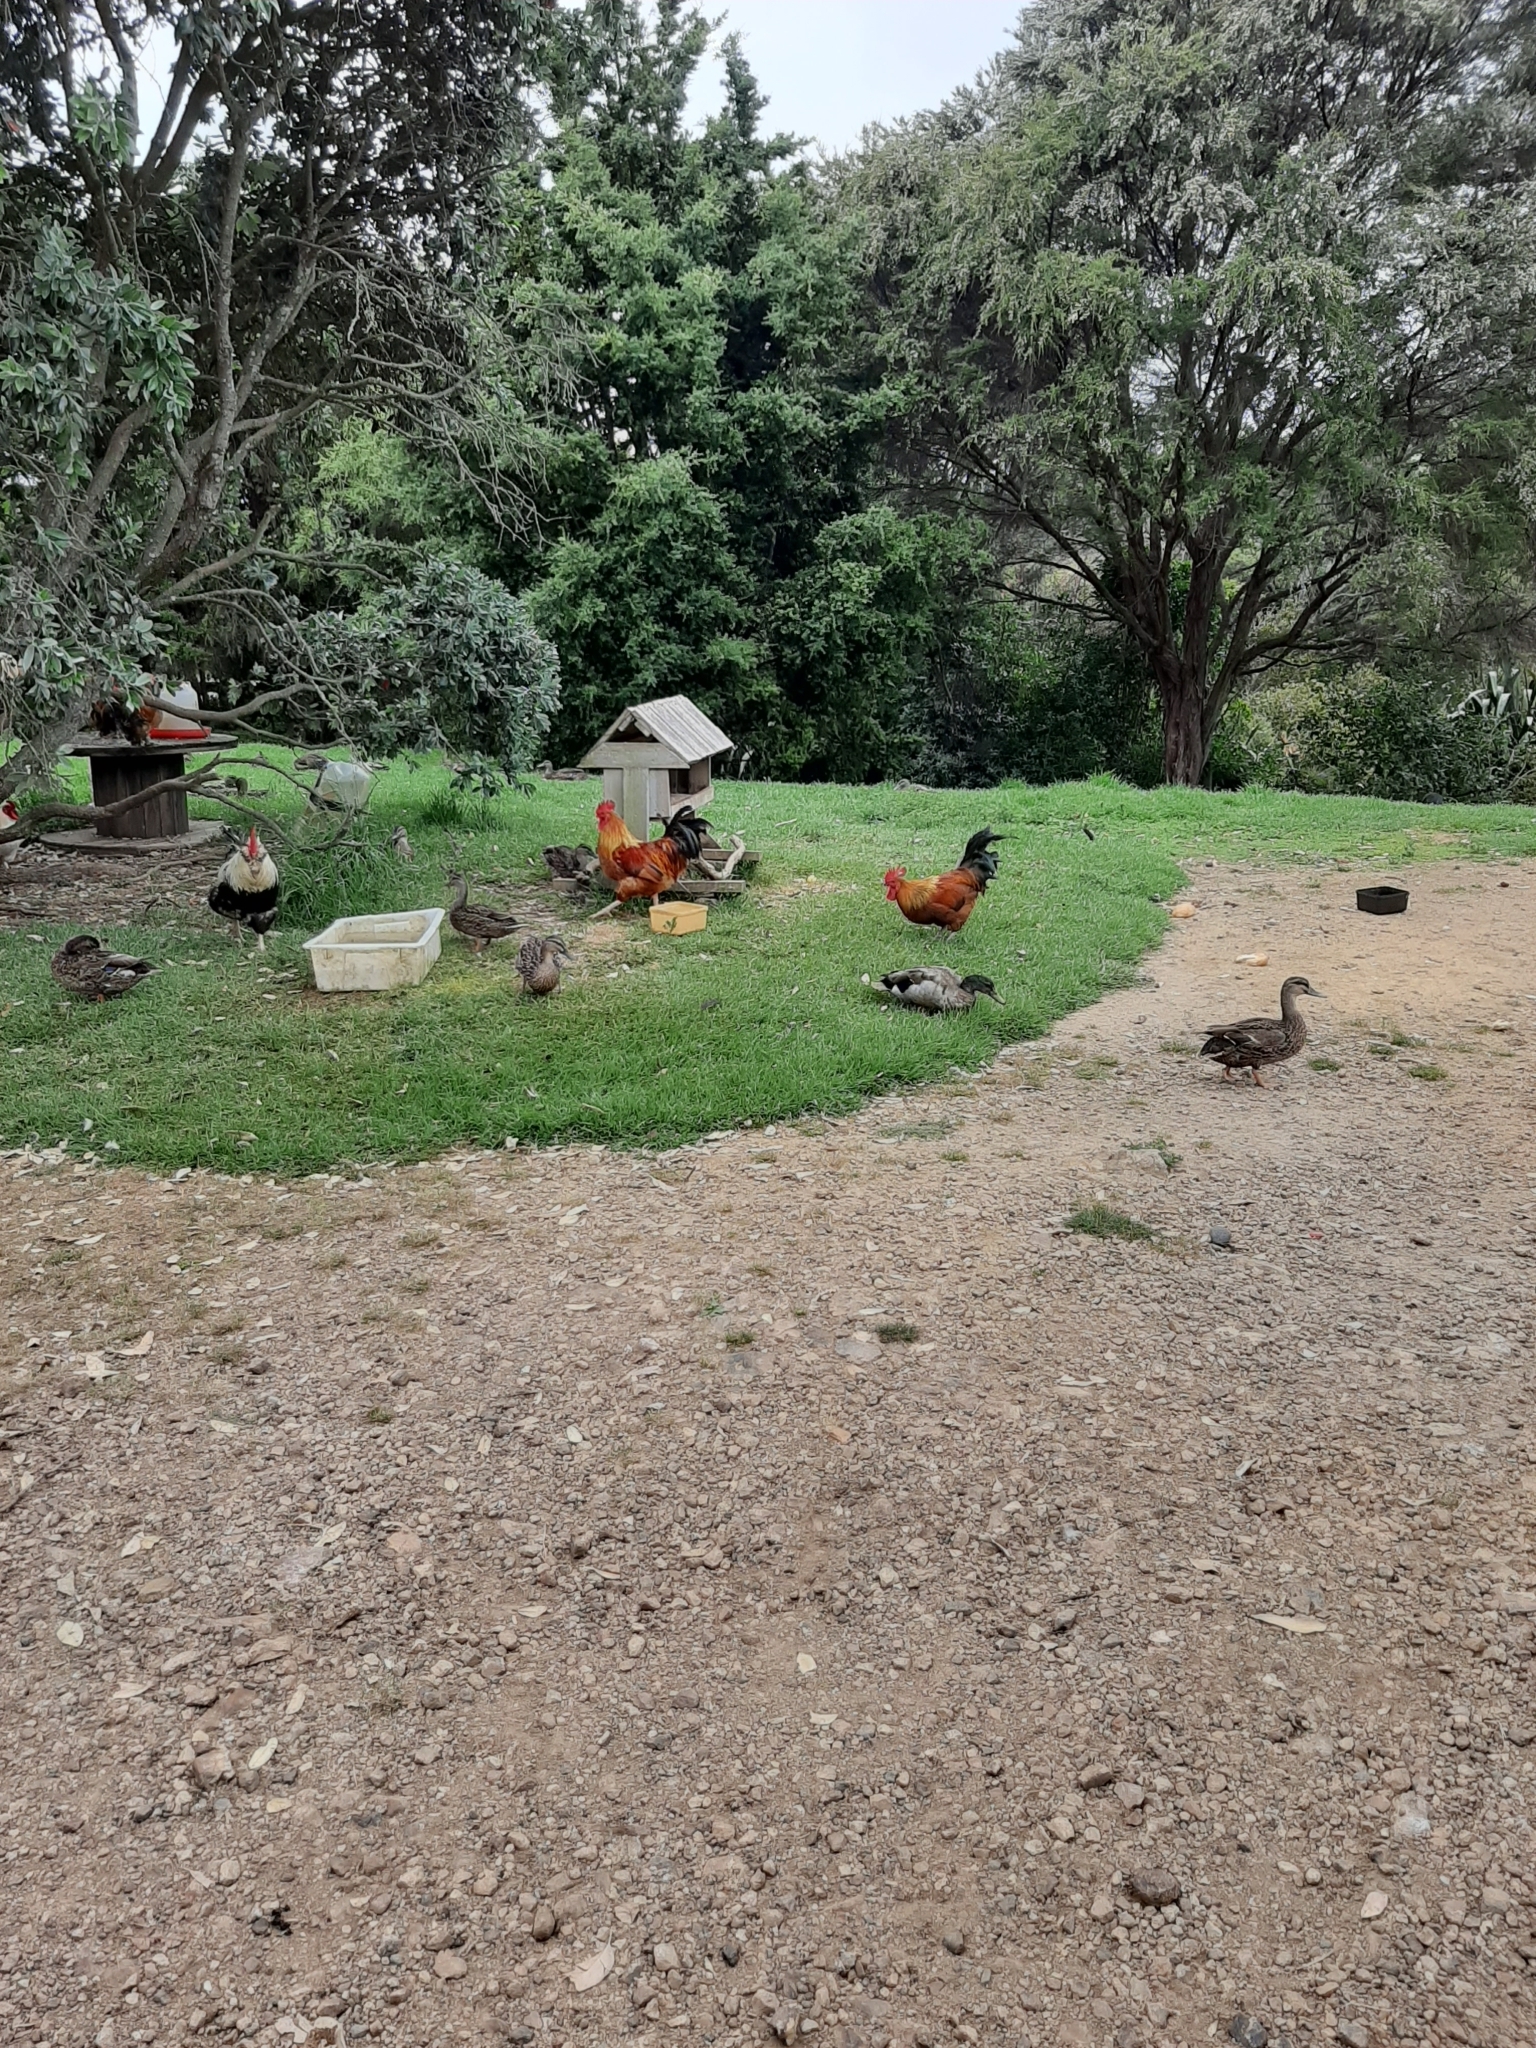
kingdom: Animalia
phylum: Chordata
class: Aves
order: Galliformes
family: Phasianidae
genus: Gallus
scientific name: Gallus gallus
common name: Red junglefowl
